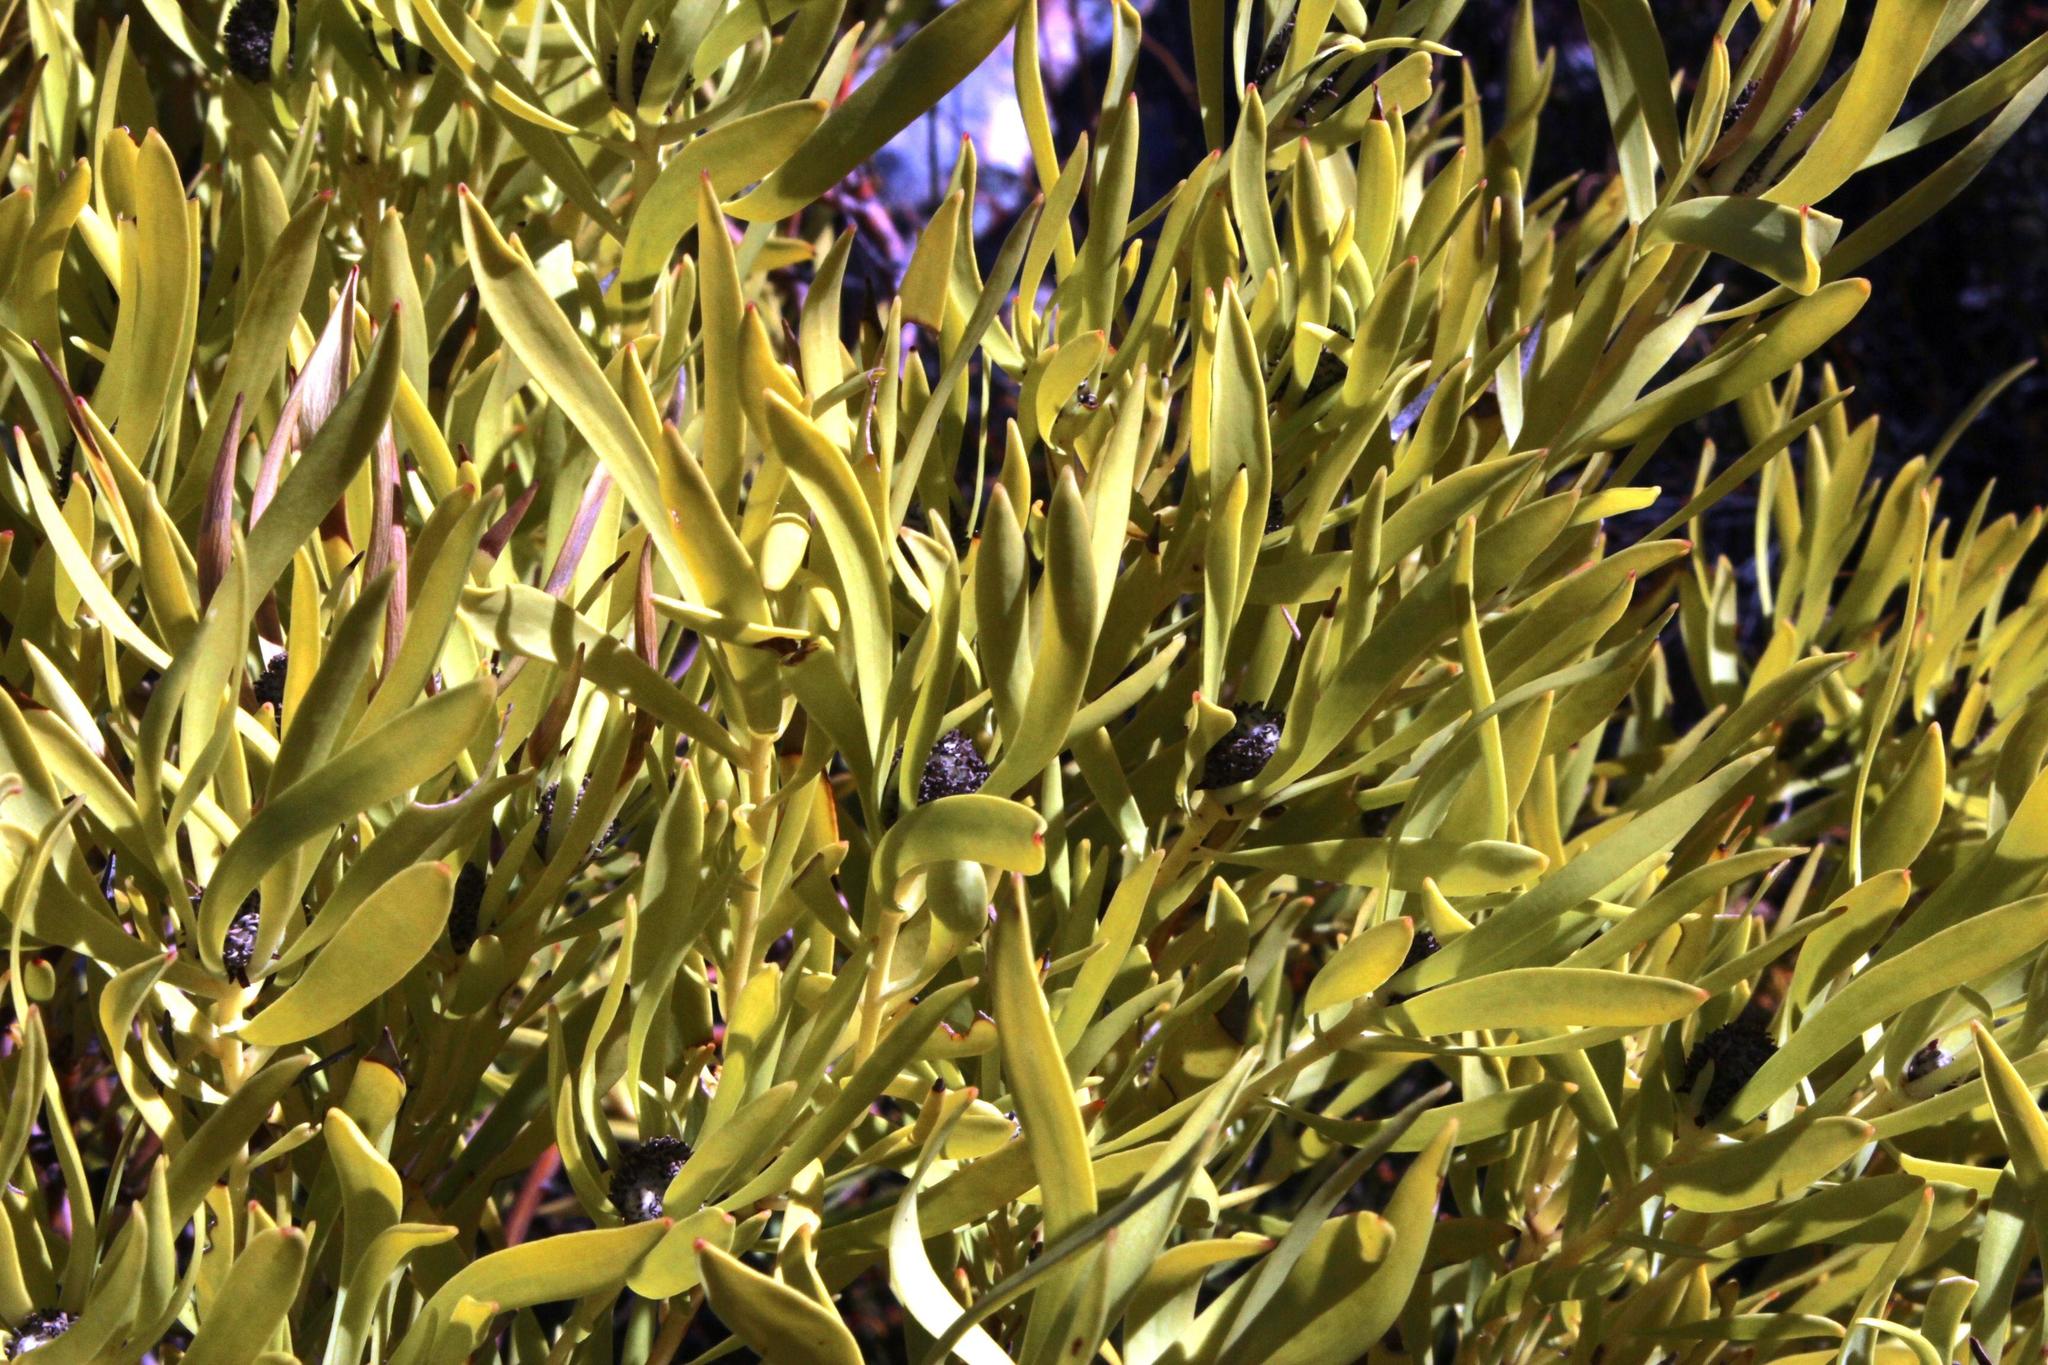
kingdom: Plantae
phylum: Tracheophyta
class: Magnoliopsida
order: Proteales
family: Proteaceae
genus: Leucadendron
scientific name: Leucadendron salignum
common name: Common sunshine conebush
